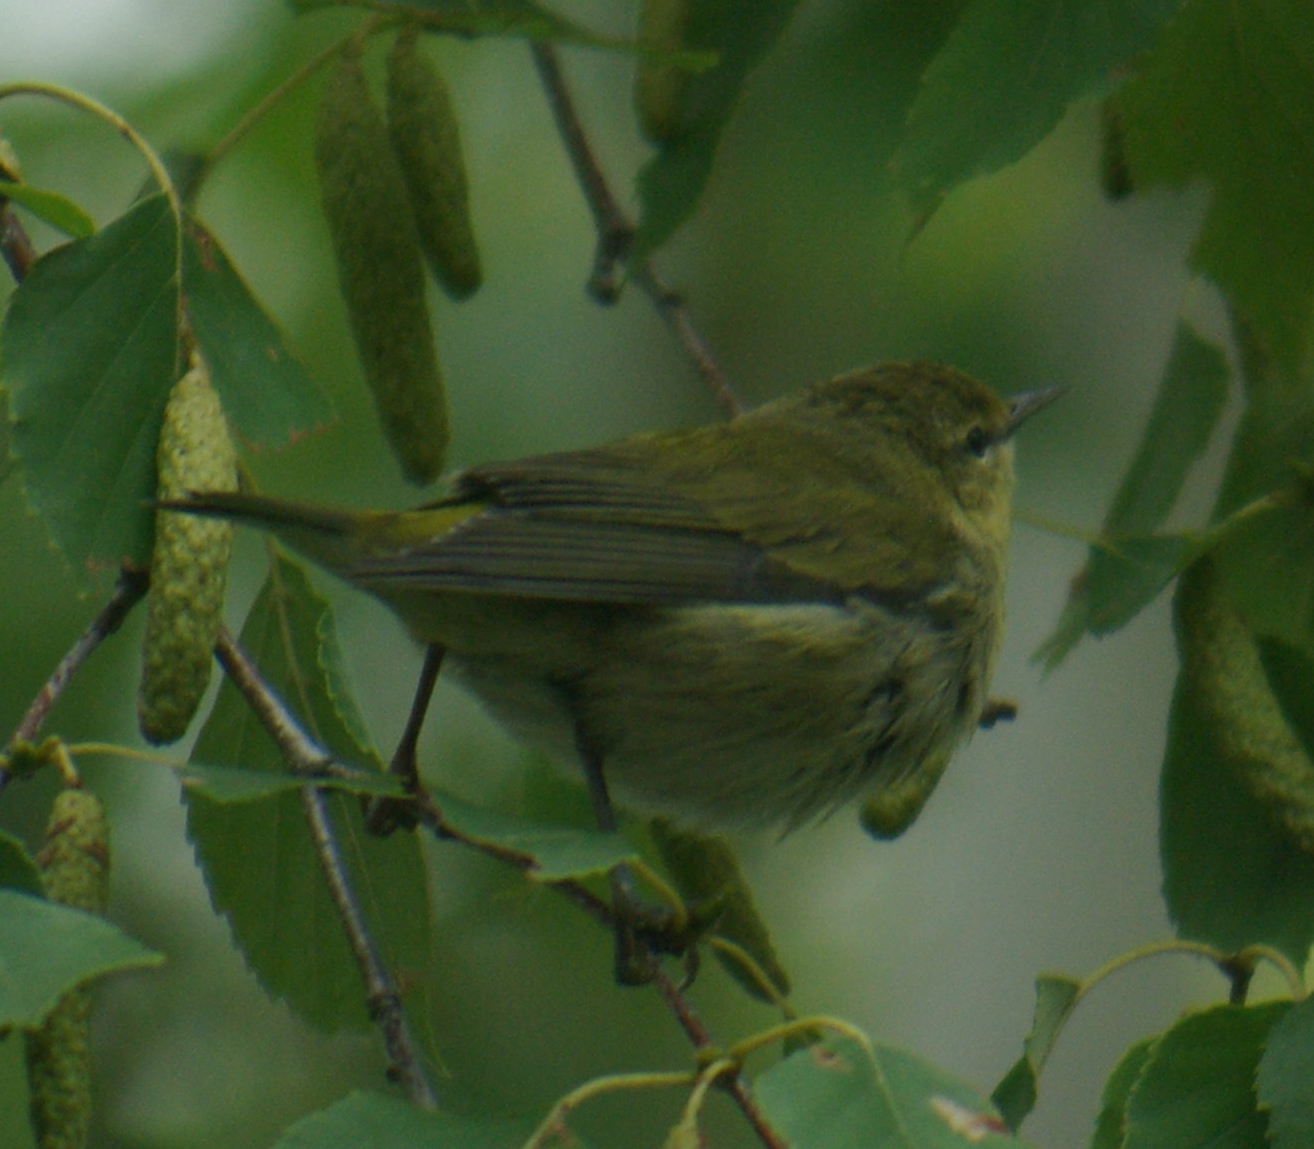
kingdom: Animalia
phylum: Chordata
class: Aves
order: Passeriformes
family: Parulidae
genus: Leiothlypis
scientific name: Leiothlypis peregrina
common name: Tennessee warbler
